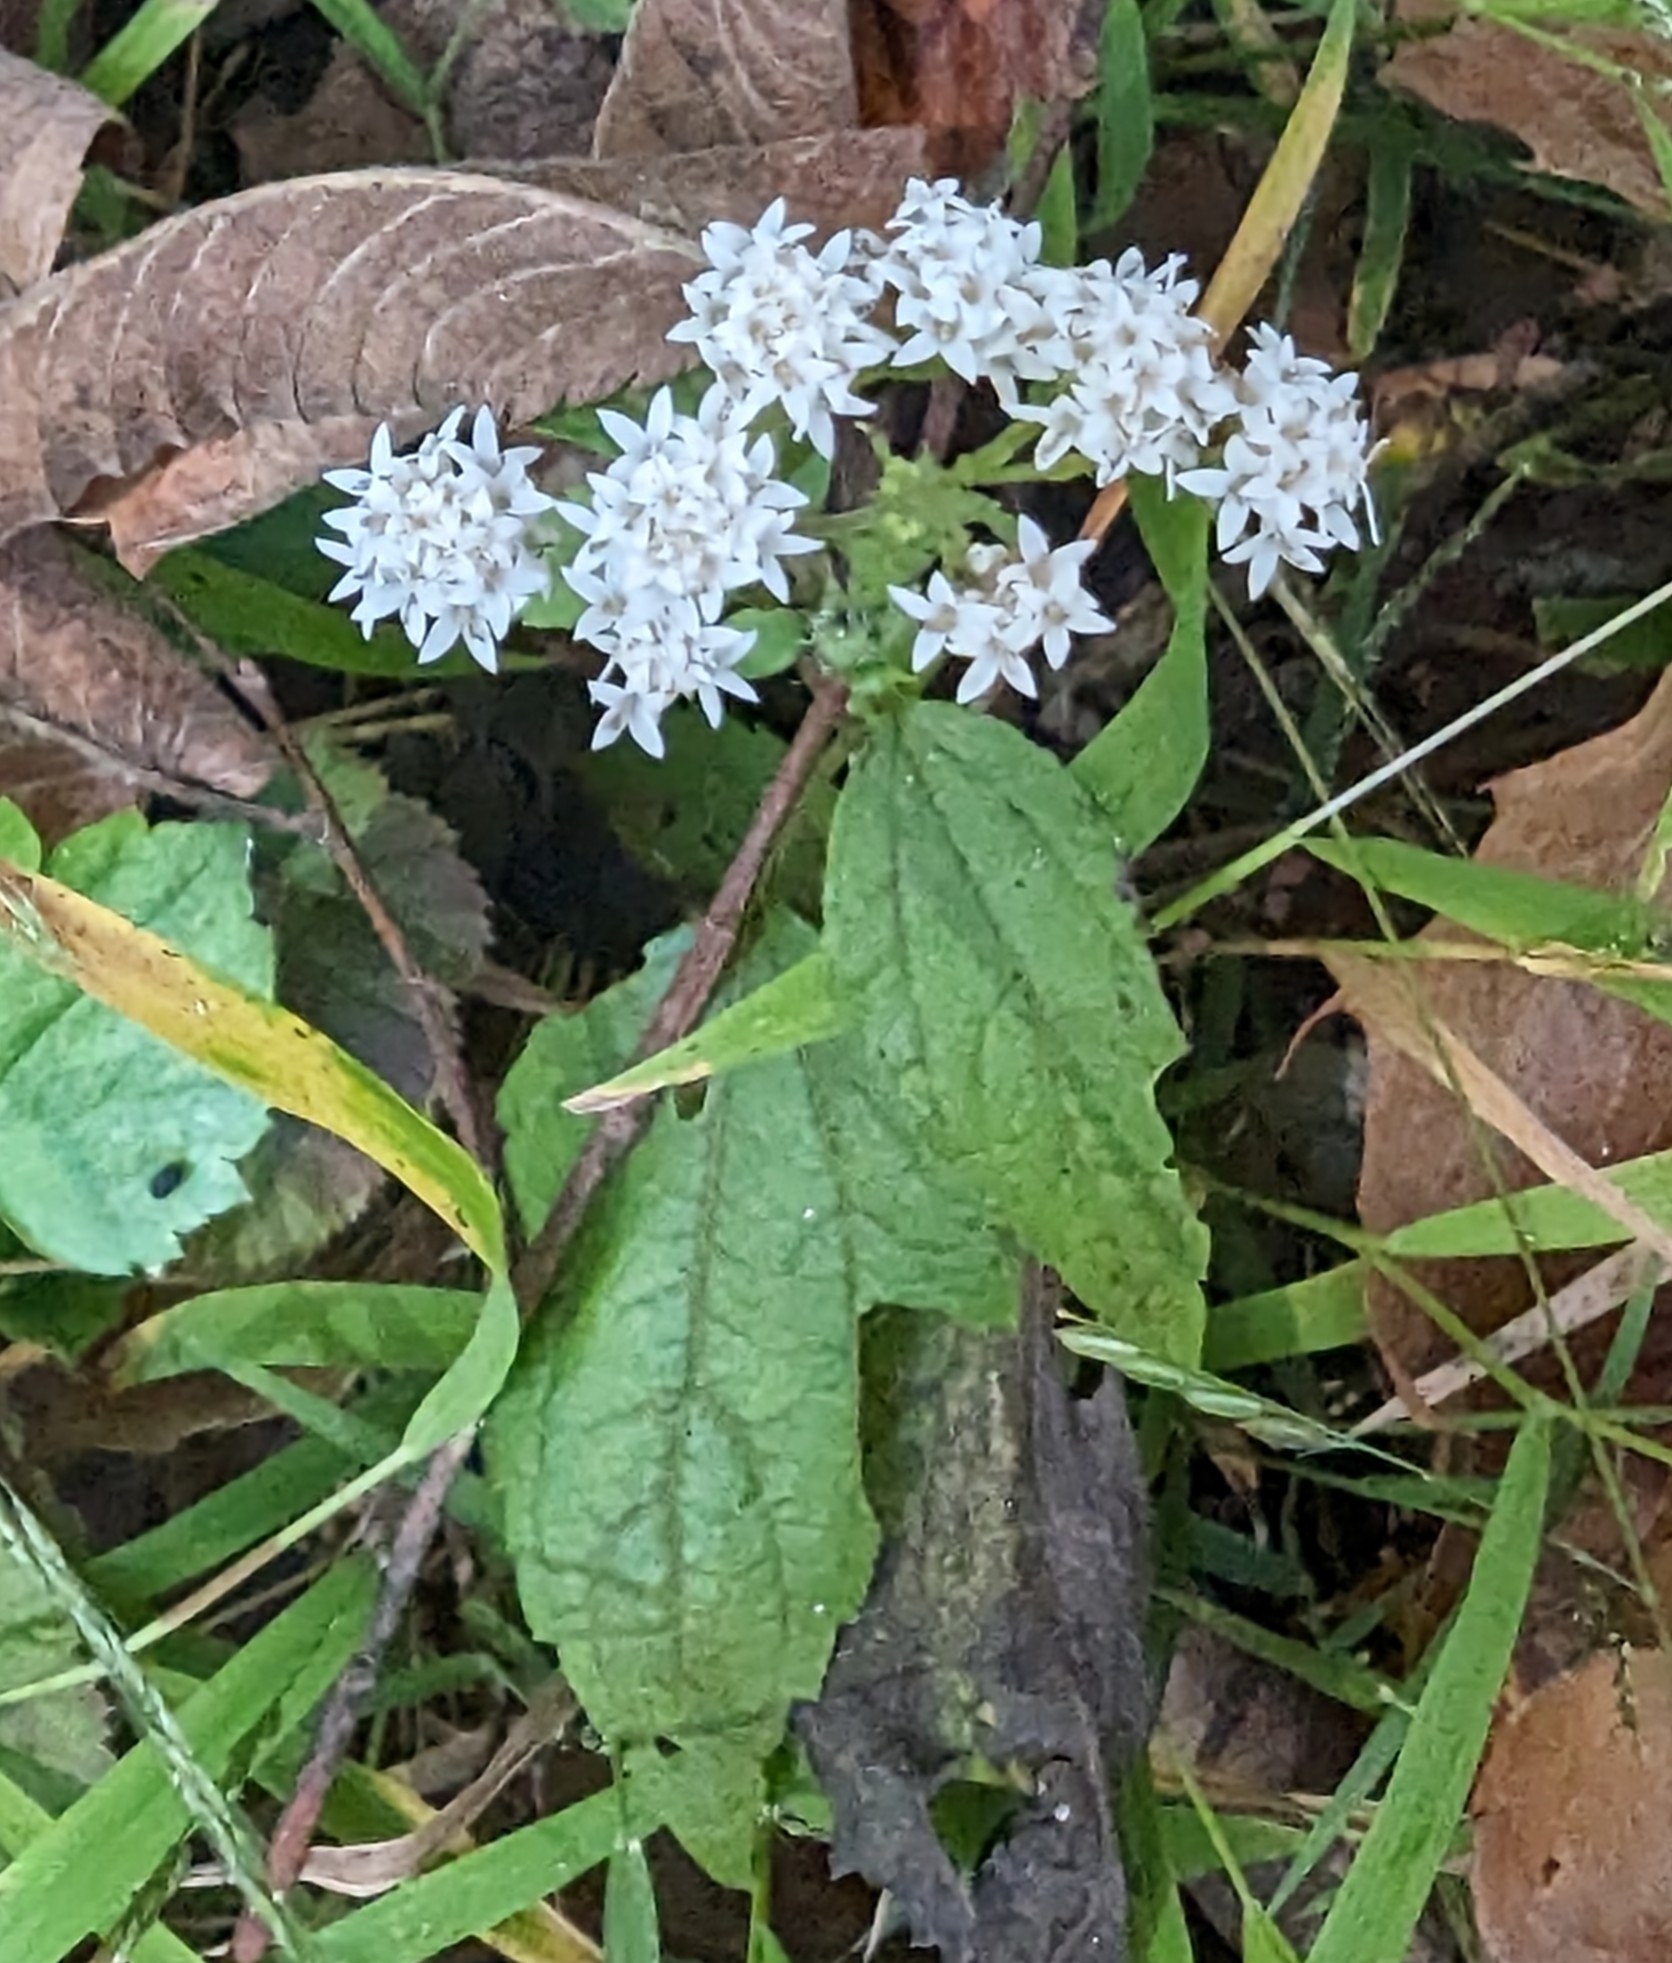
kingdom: Plantae
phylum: Tracheophyta
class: Magnoliopsida
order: Asterales
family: Asteraceae
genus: Ageratina
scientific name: Ageratina altissima
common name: White snakeroot
